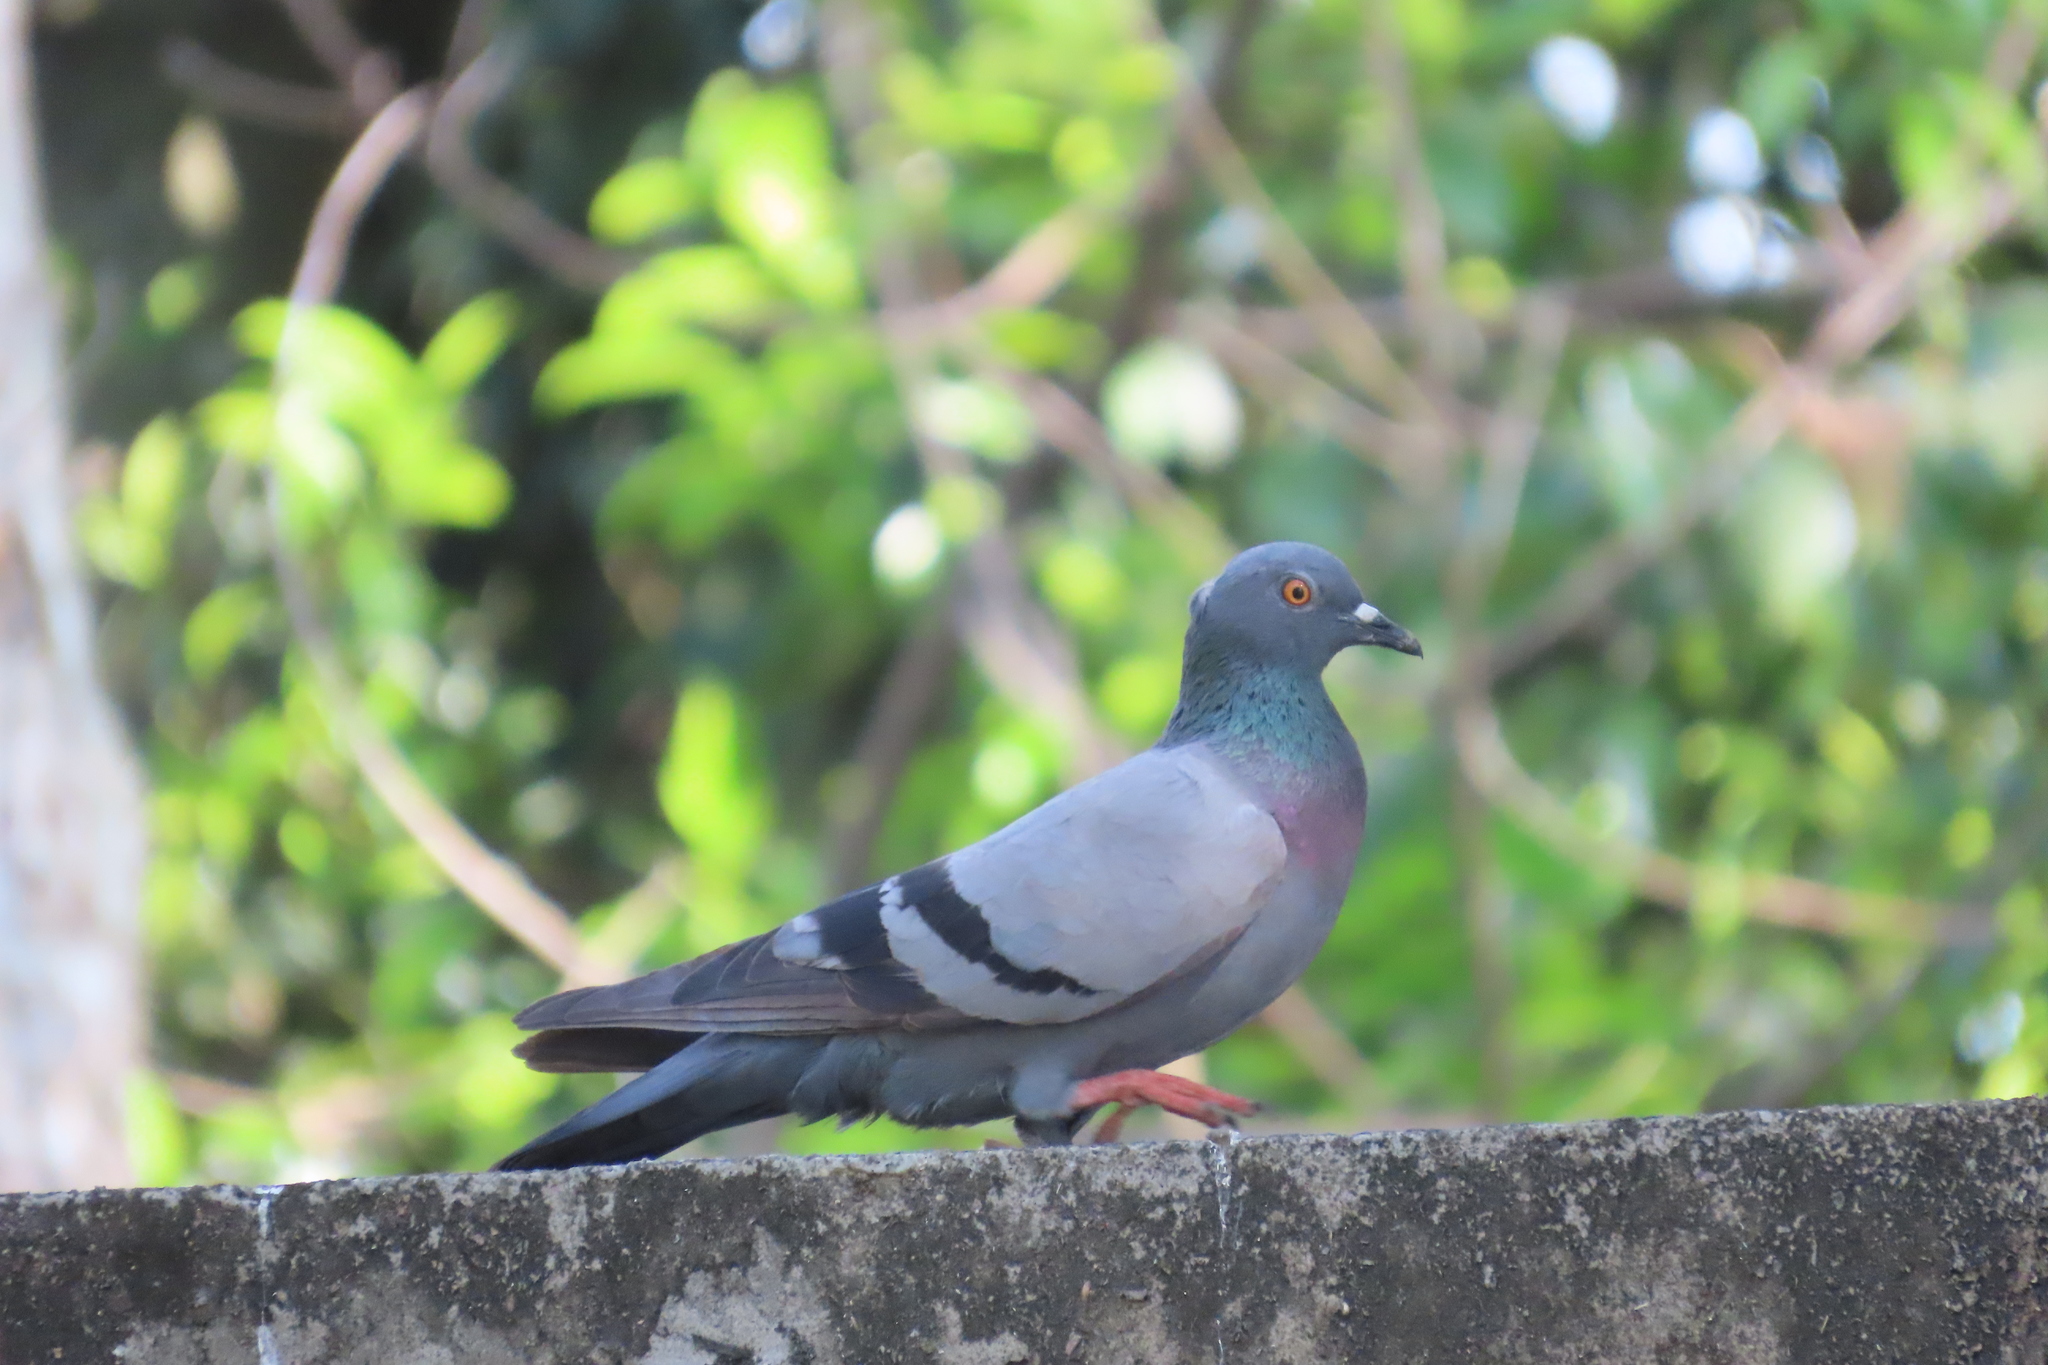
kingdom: Animalia
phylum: Chordata
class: Aves
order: Columbiformes
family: Columbidae
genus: Columba
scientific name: Columba livia
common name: Rock pigeon
